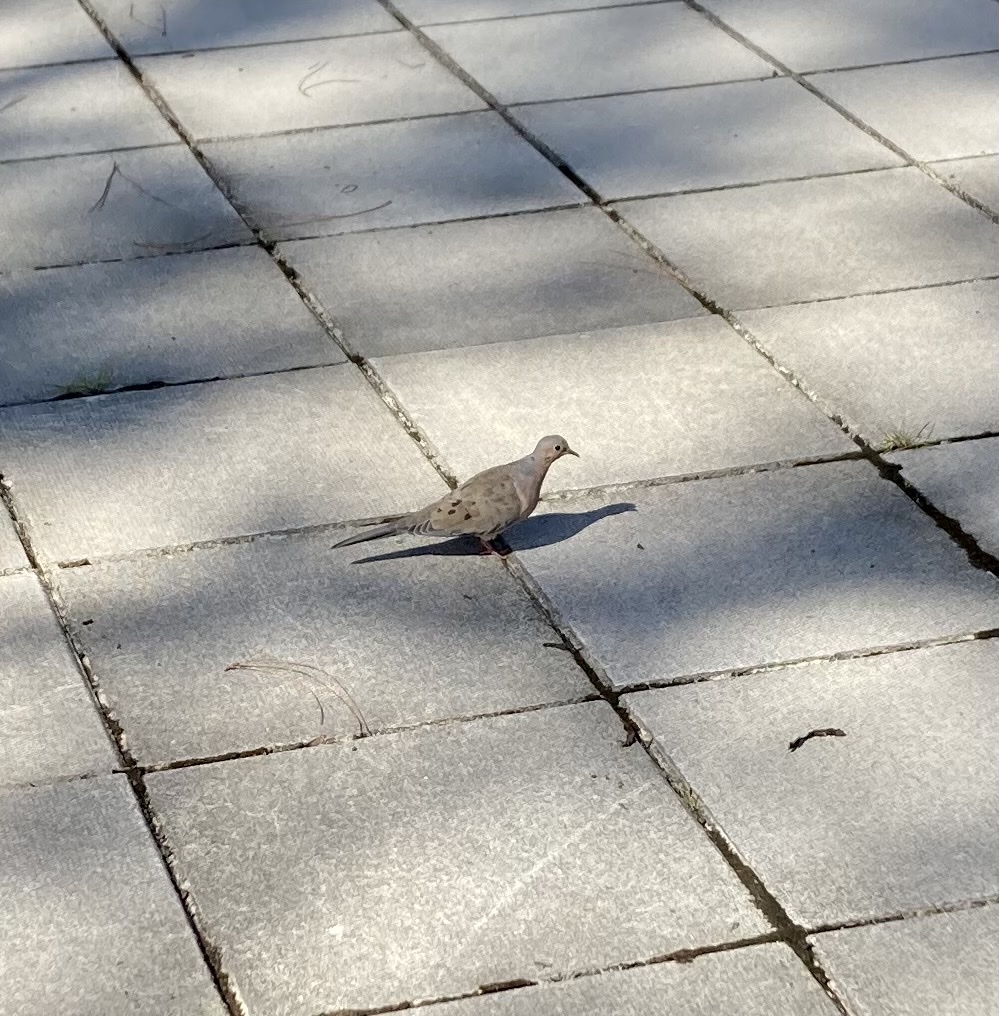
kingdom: Animalia
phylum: Chordata
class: Aves
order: Columbiformes
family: Columbidae
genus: Zenaida
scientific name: Zenaida macroura
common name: Mourning dove
